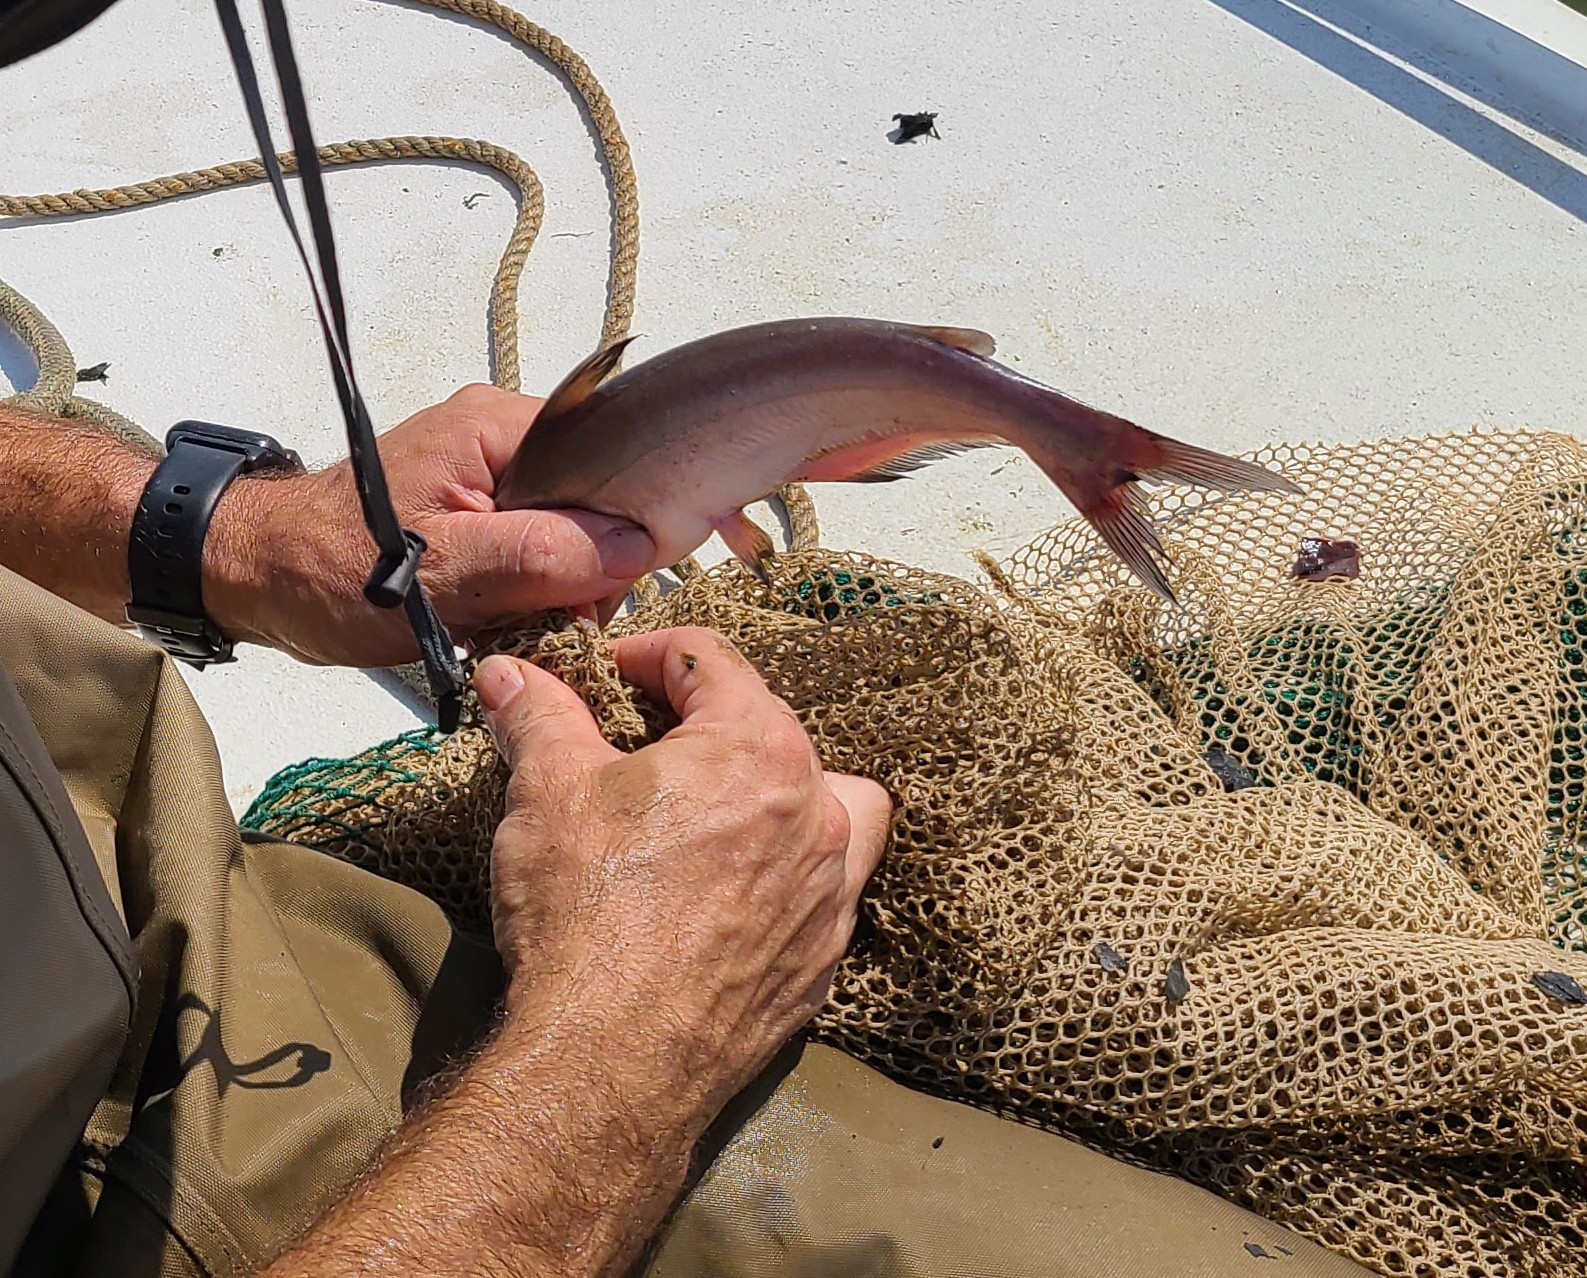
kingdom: Animalia
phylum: Chordata
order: Siluriformes
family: Ictaluridae
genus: Ictalurus
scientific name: Ictalurus furcatus
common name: Blue catfish
